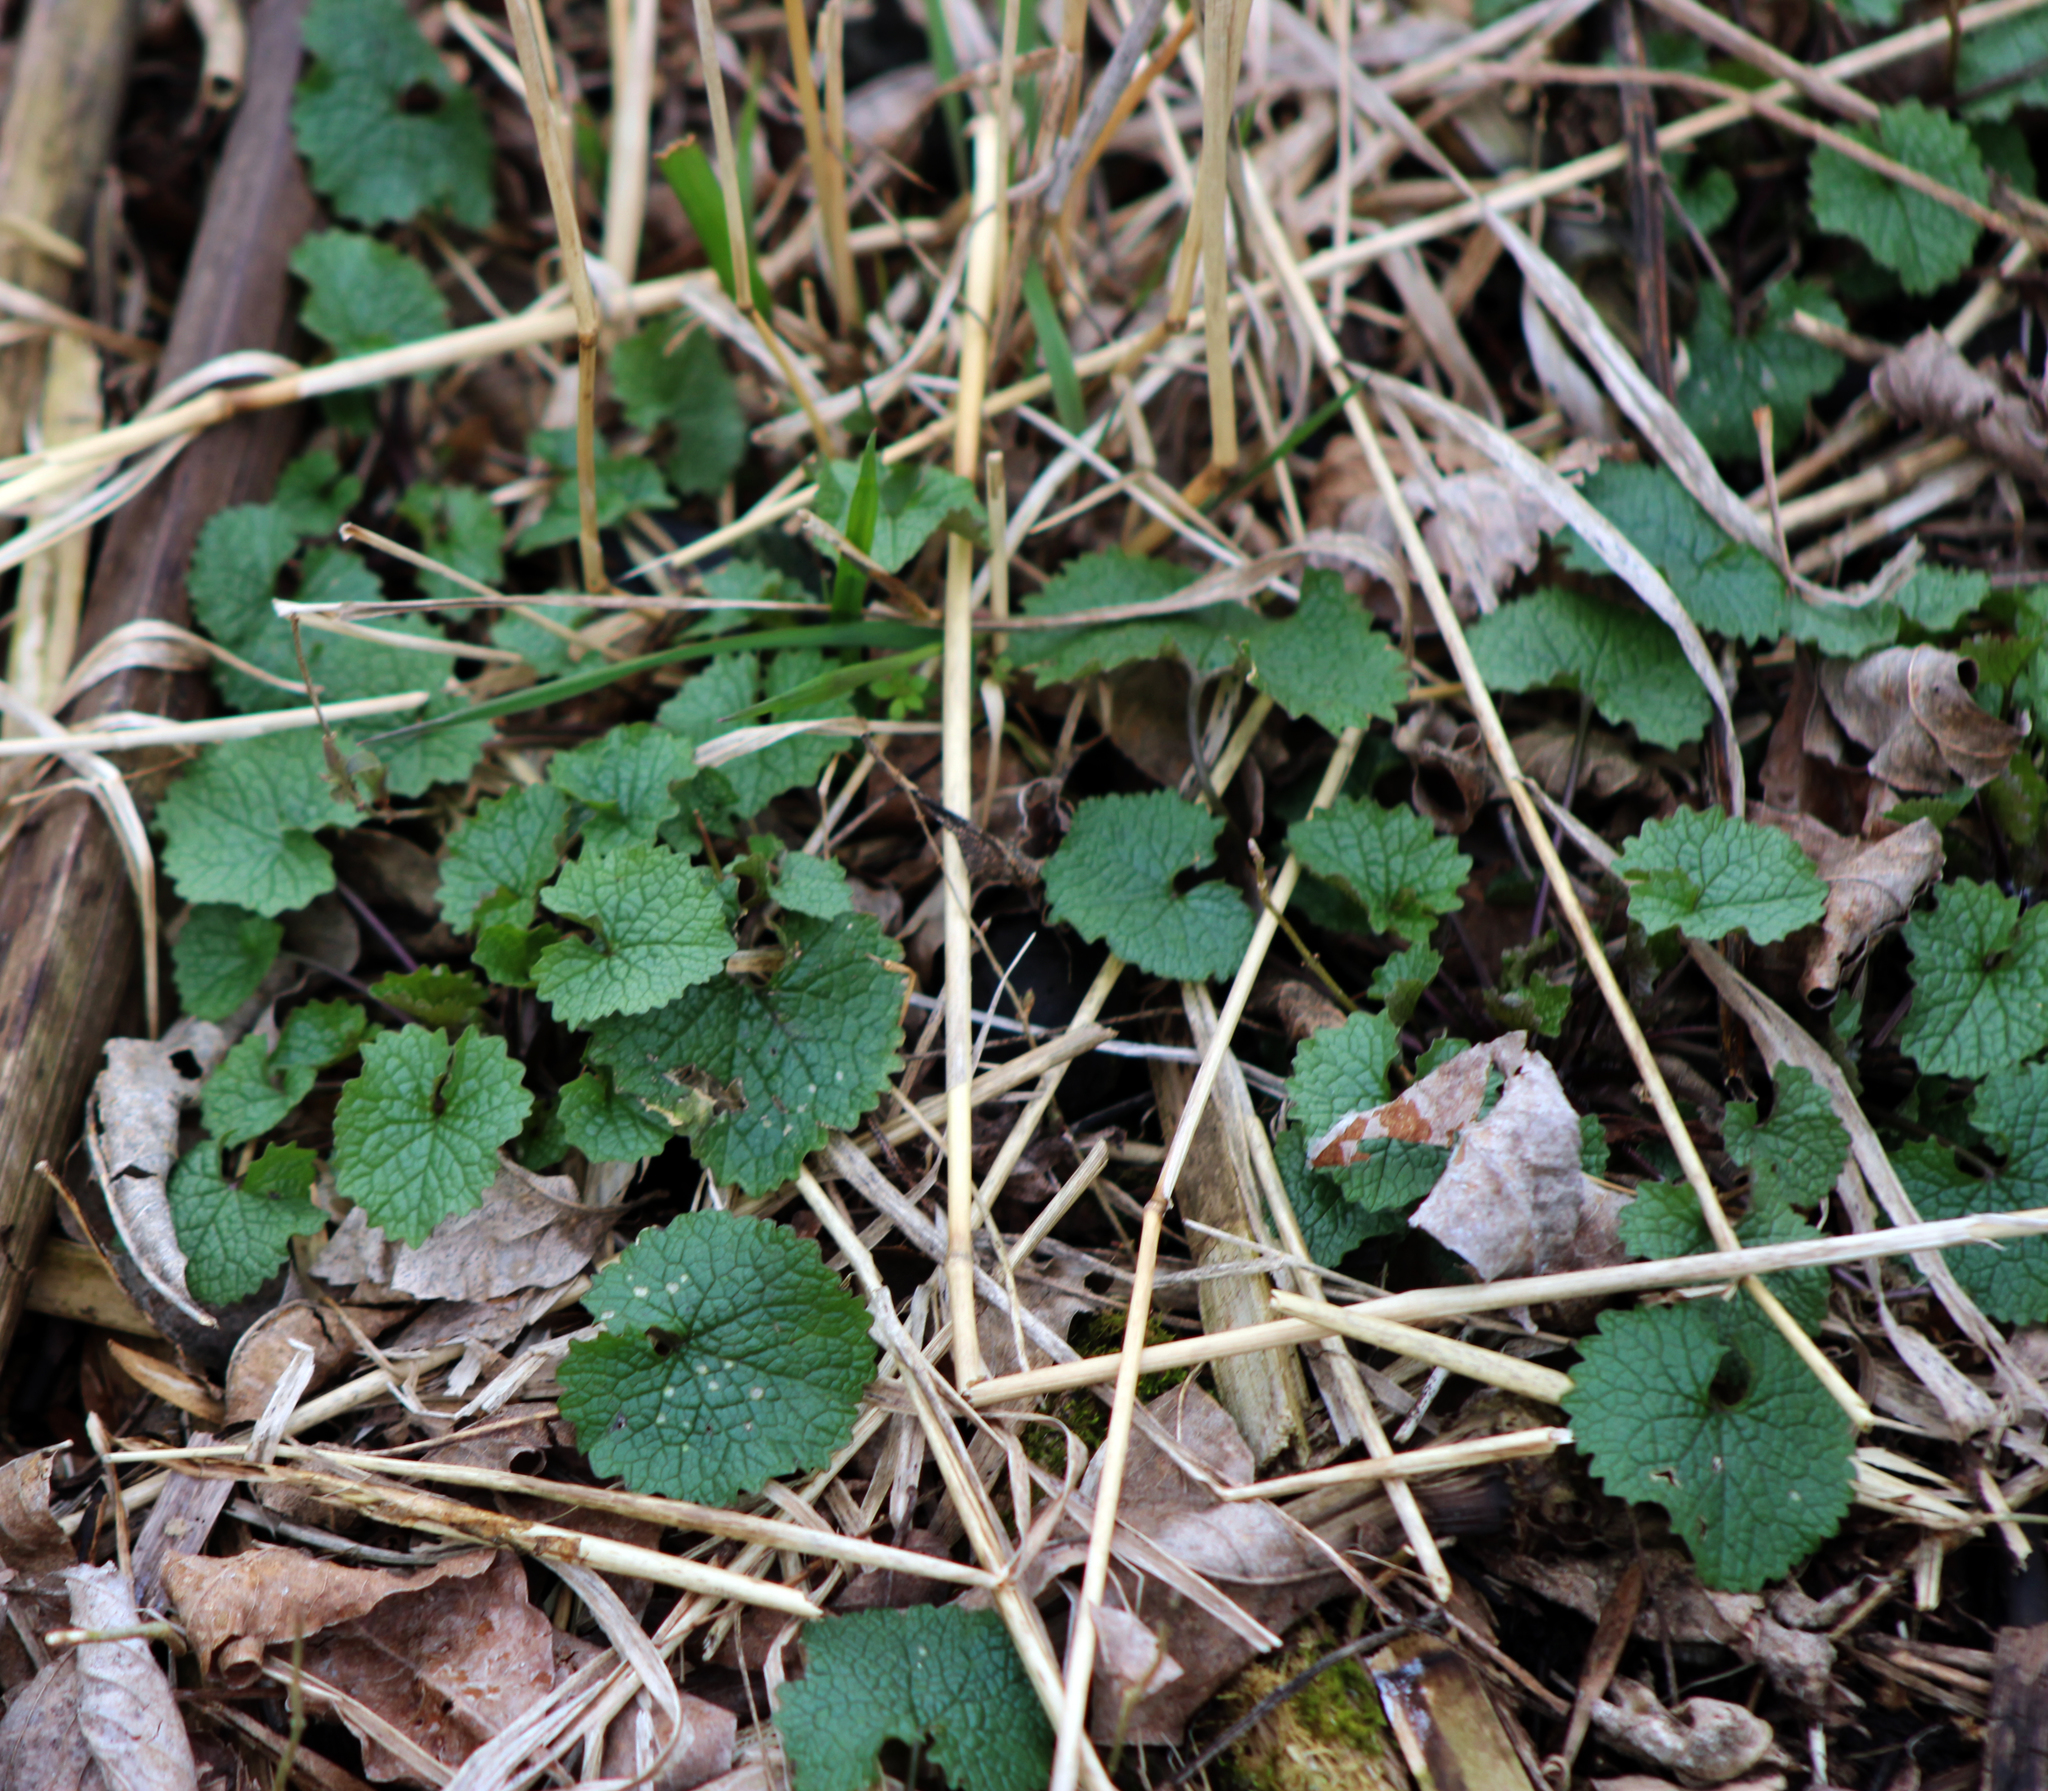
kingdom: Plantae
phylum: Tracheophyta
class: Magnoliopsida
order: Brassicales
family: Brassicaceae
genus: Alliaria
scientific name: Alliaria petiolata
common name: Garlic mustard
